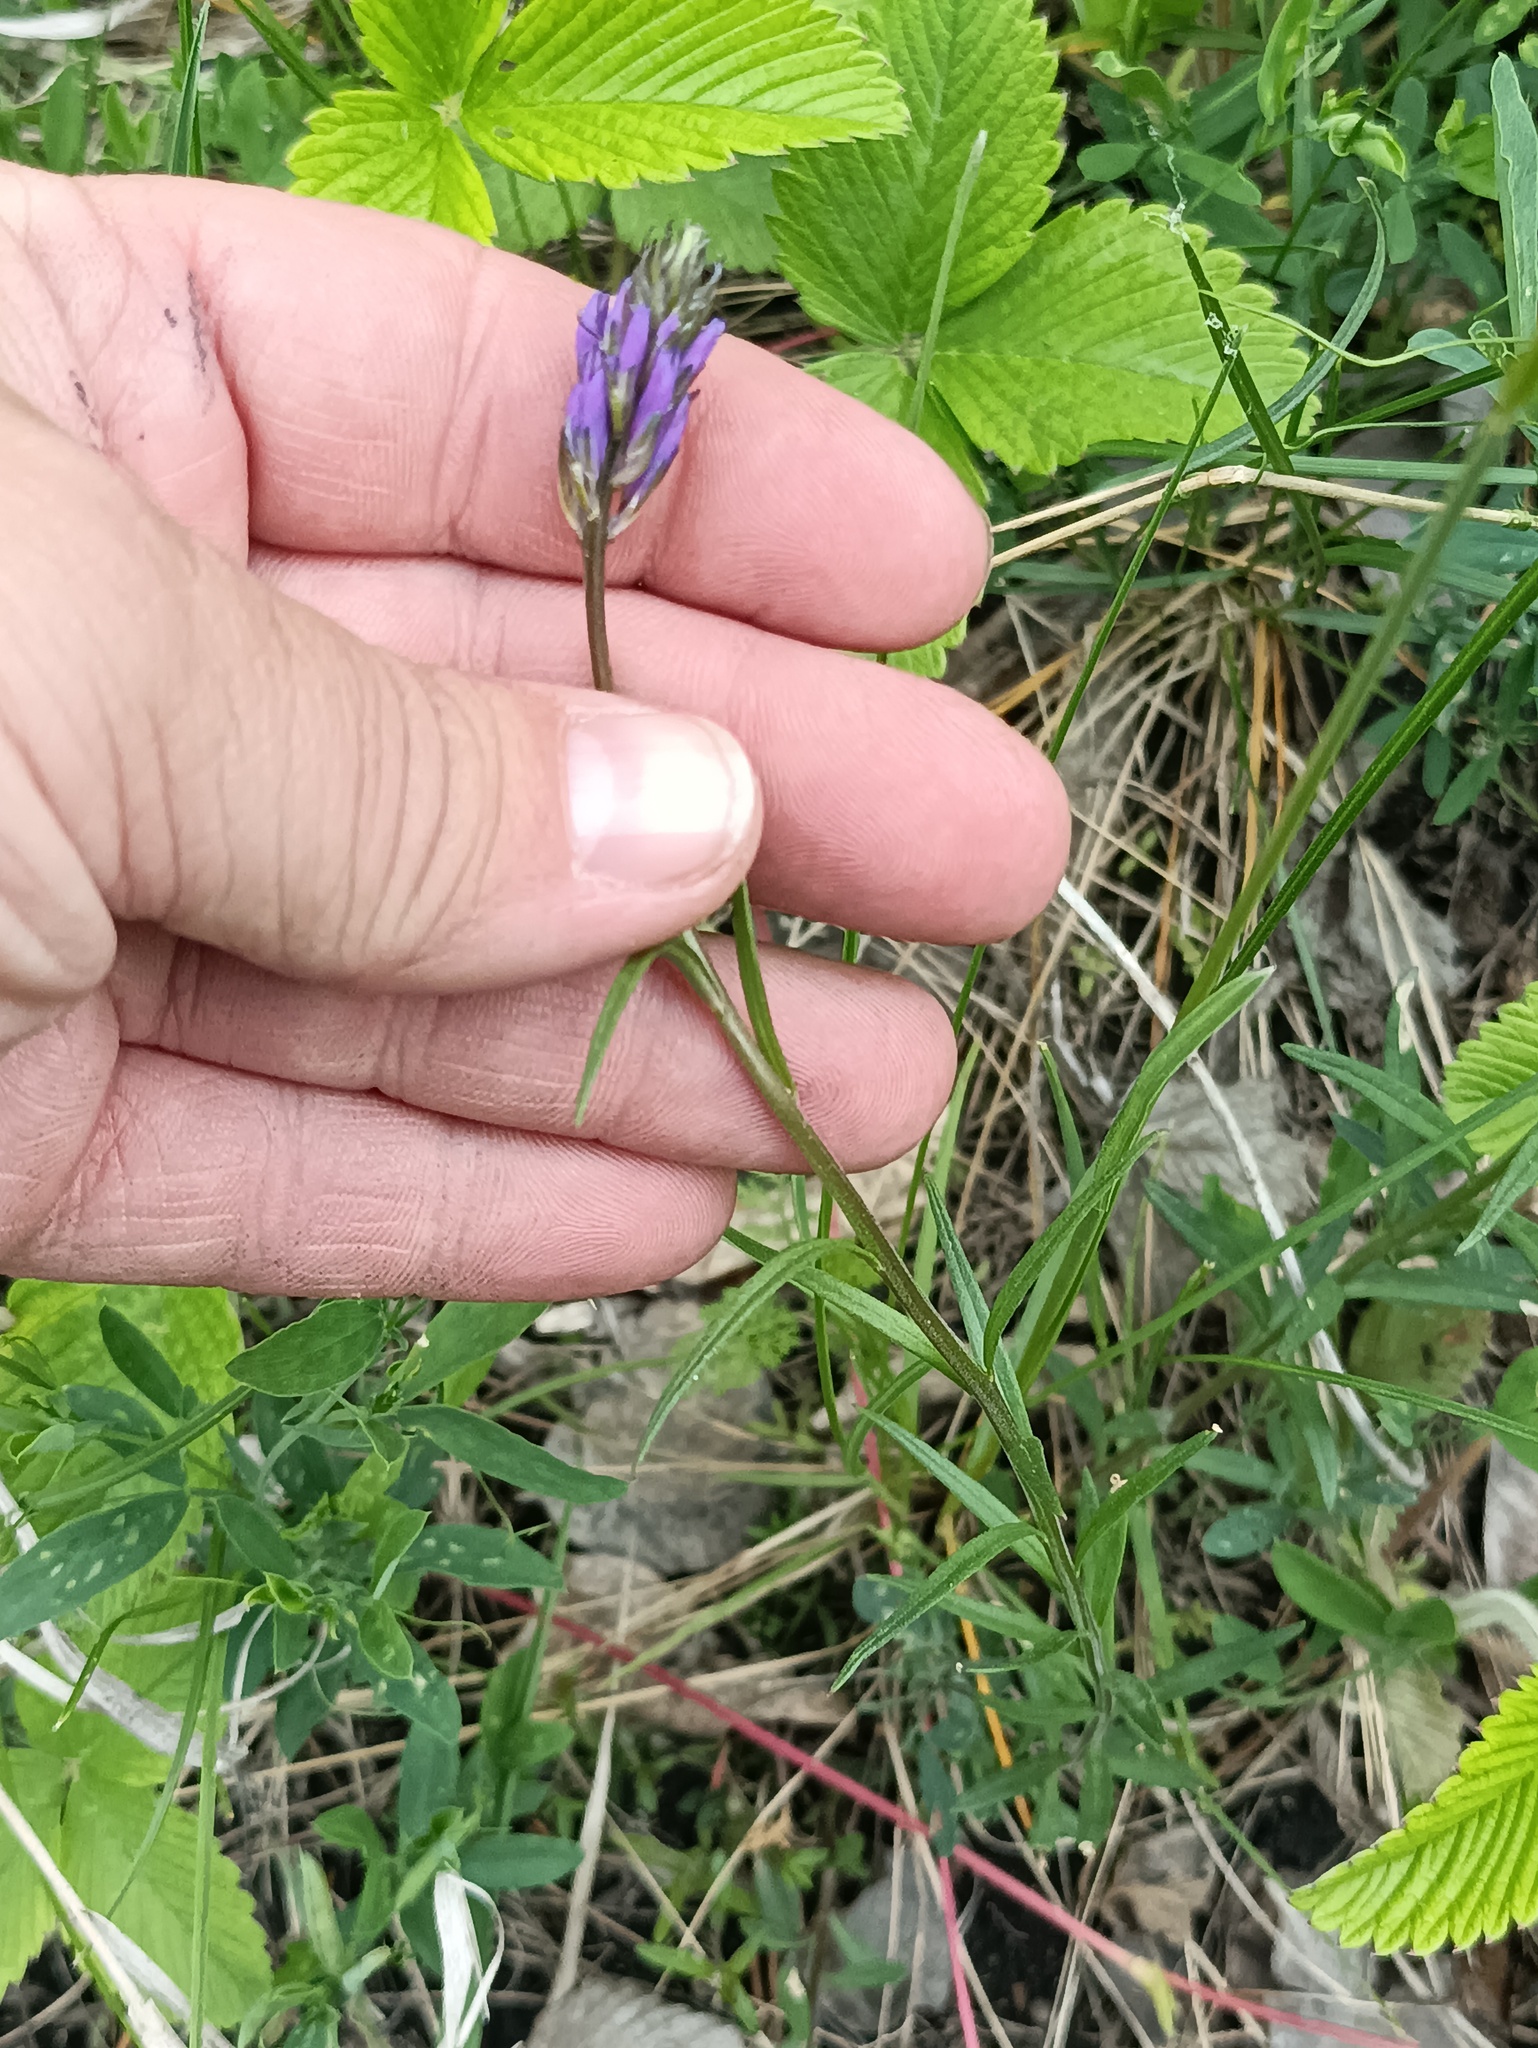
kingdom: Plantae
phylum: Tracheophyta
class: Magnoliopsida
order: Fabales
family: Fabaceae
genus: Astragalus
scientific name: Astragalus danicus
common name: Purple milk-vetch
